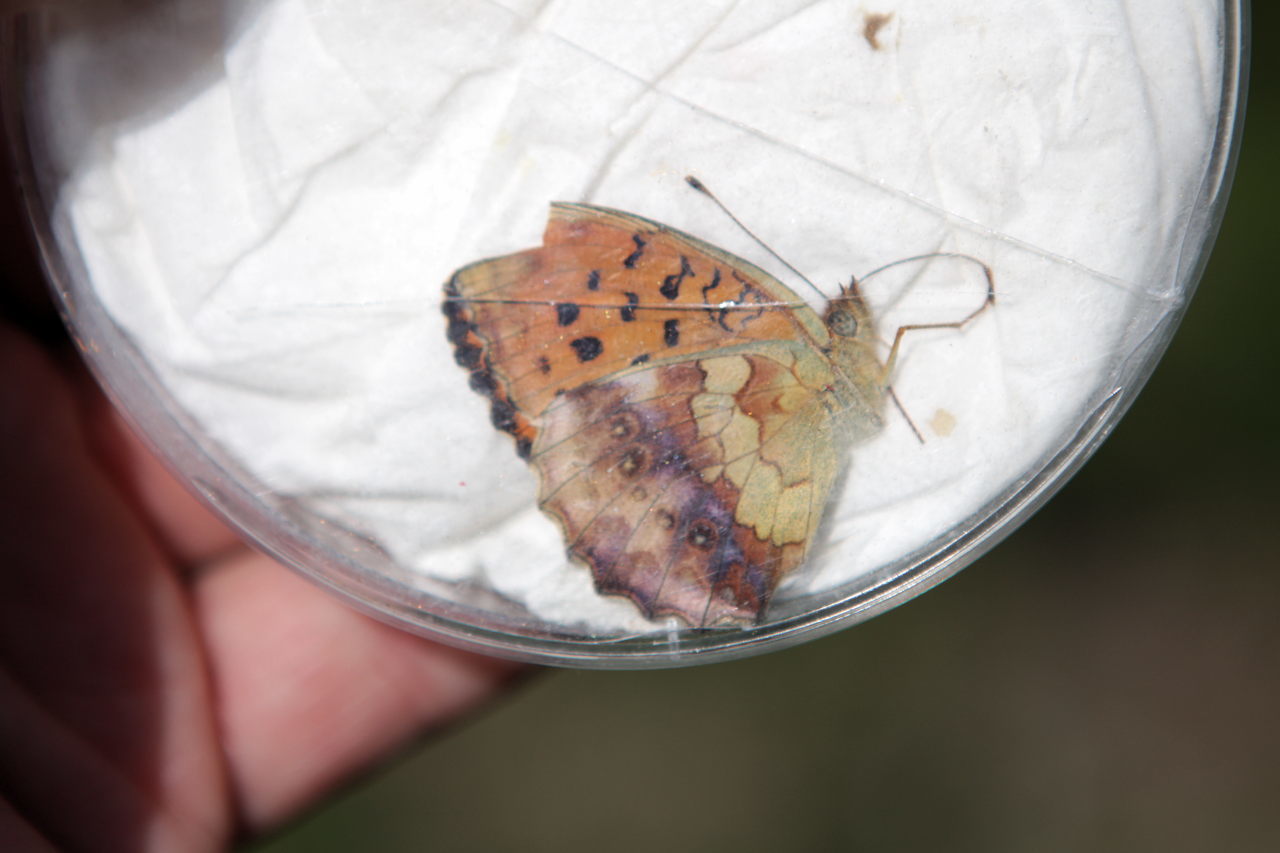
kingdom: Animalia
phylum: Arthropoda
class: Insecta
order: Lepidoptera
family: Nymphalidae
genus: Brenthis
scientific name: Brenthis daphne
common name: Marbled fritillary
